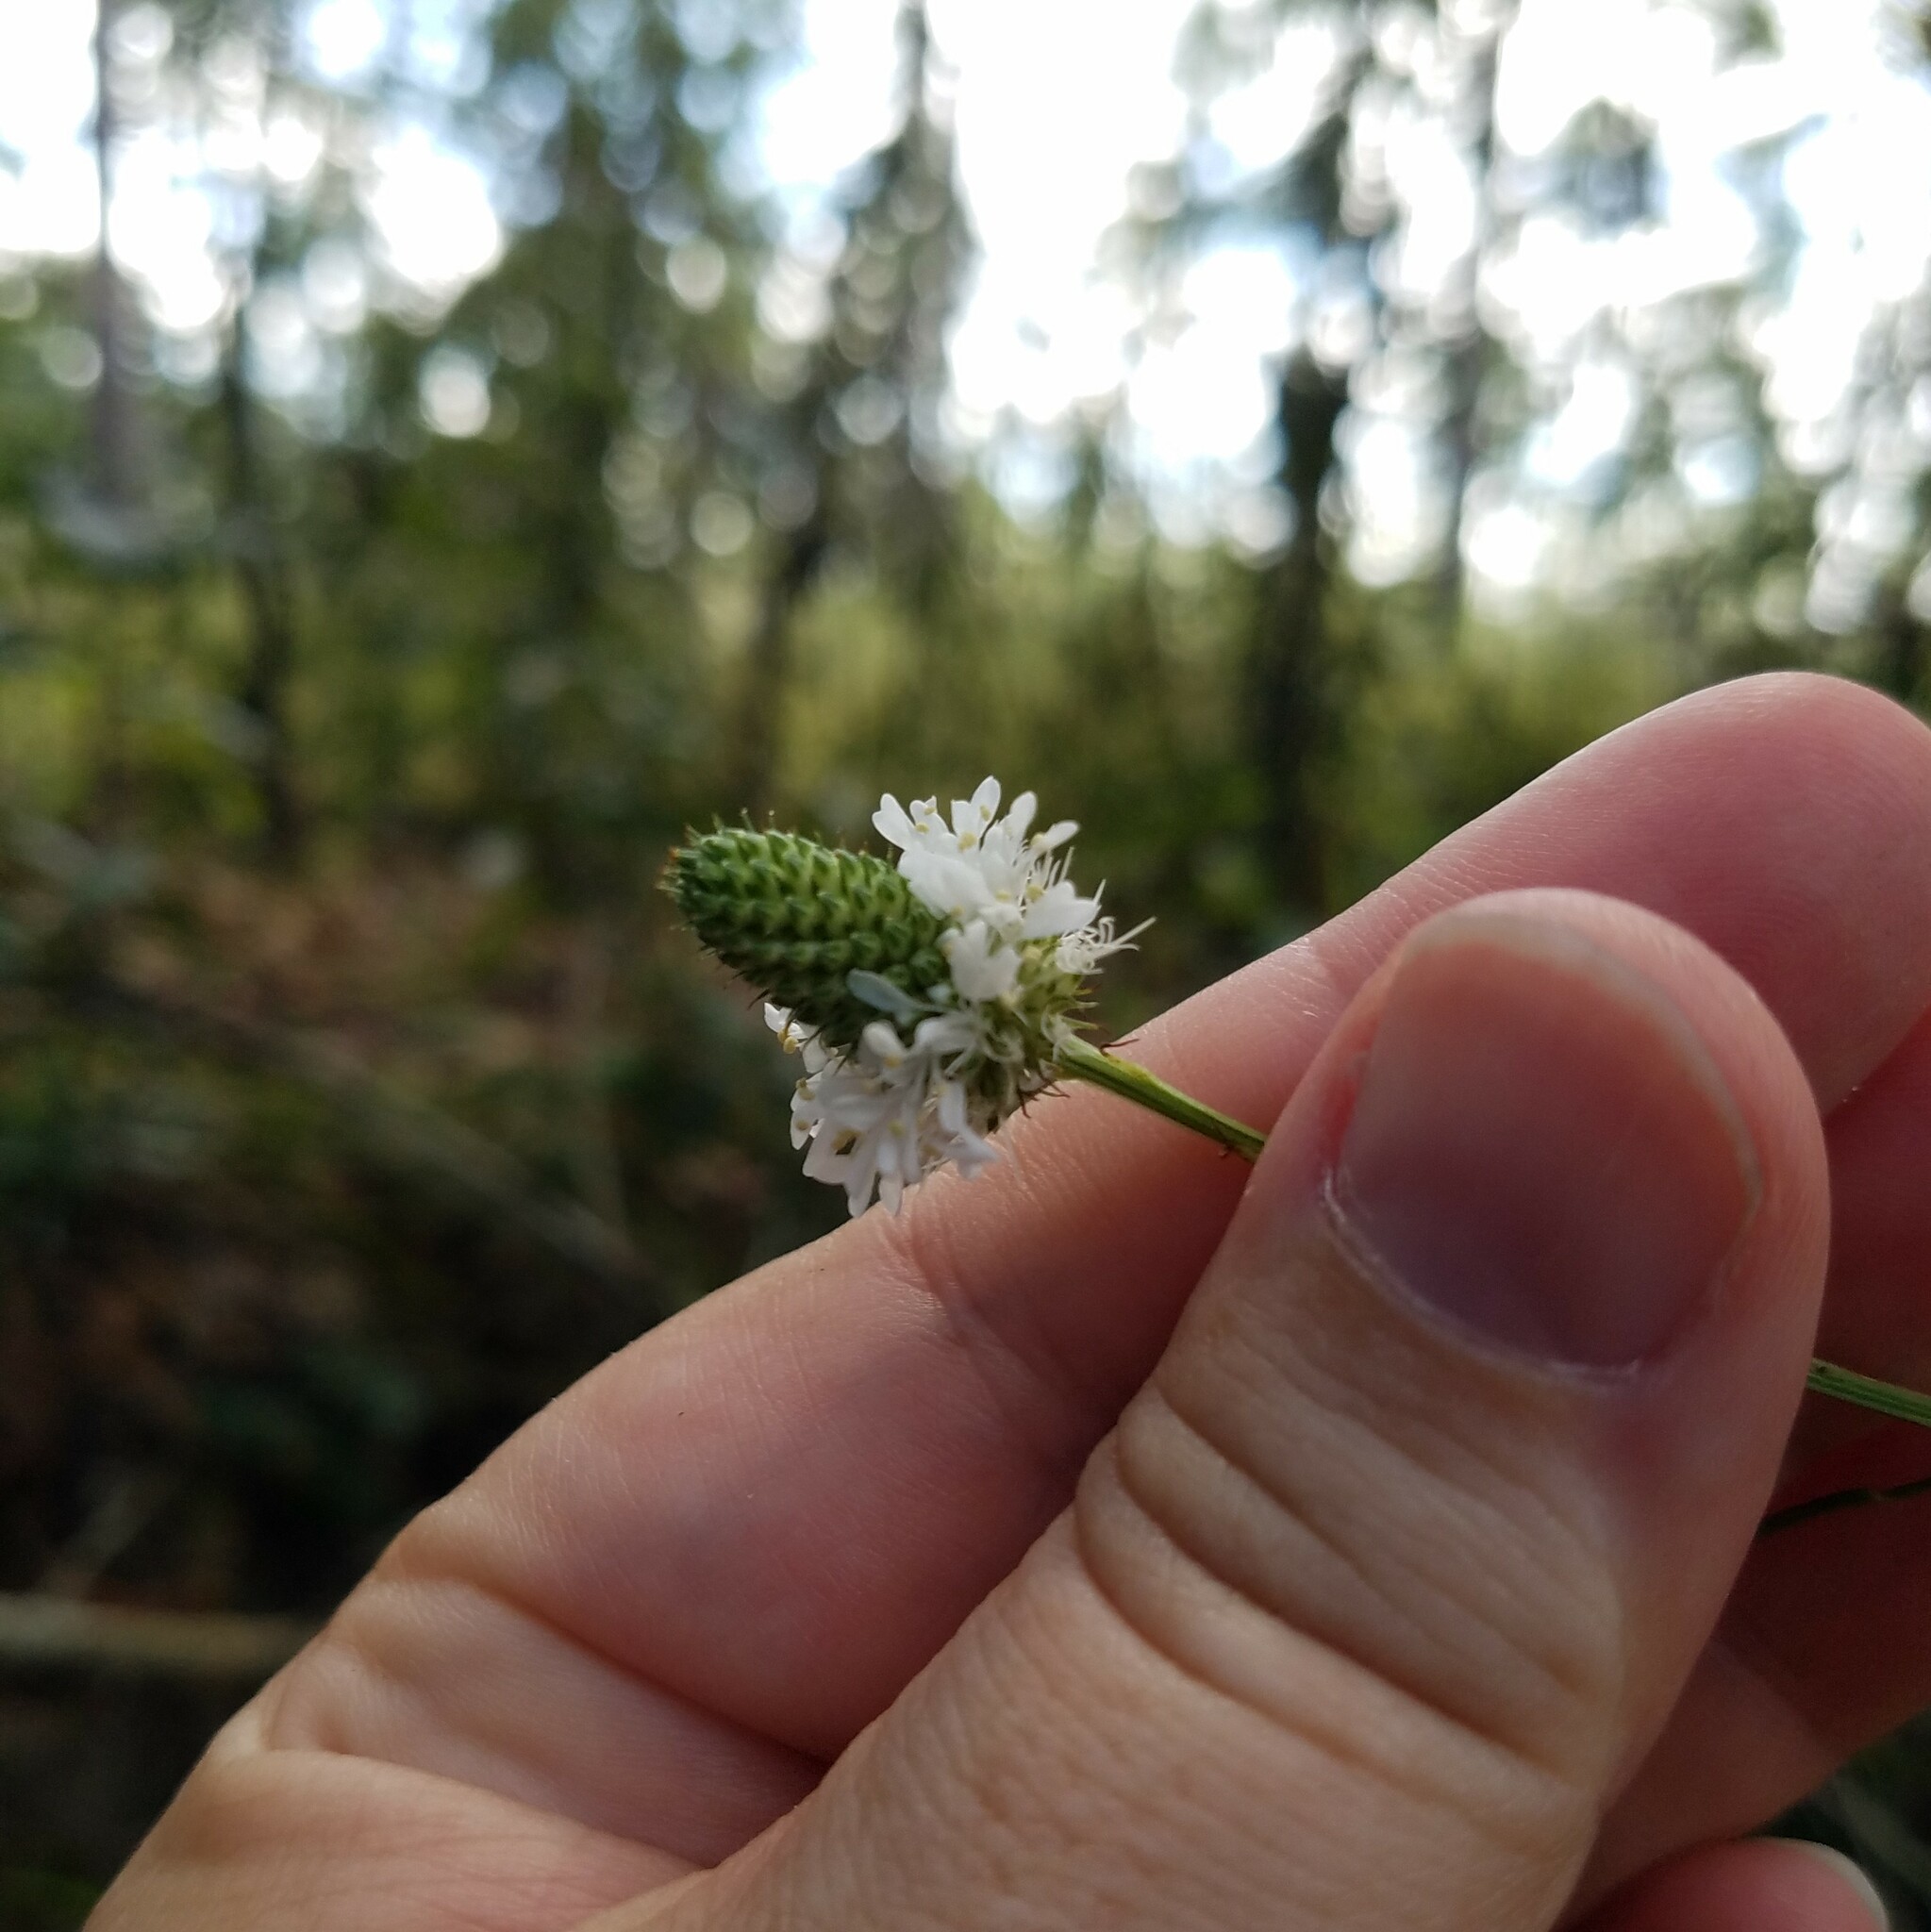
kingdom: Plantae
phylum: Tracheophyta
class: Magnoliopsida
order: Fabales
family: Fabaceae
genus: Dalea
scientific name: Dalea carnea
